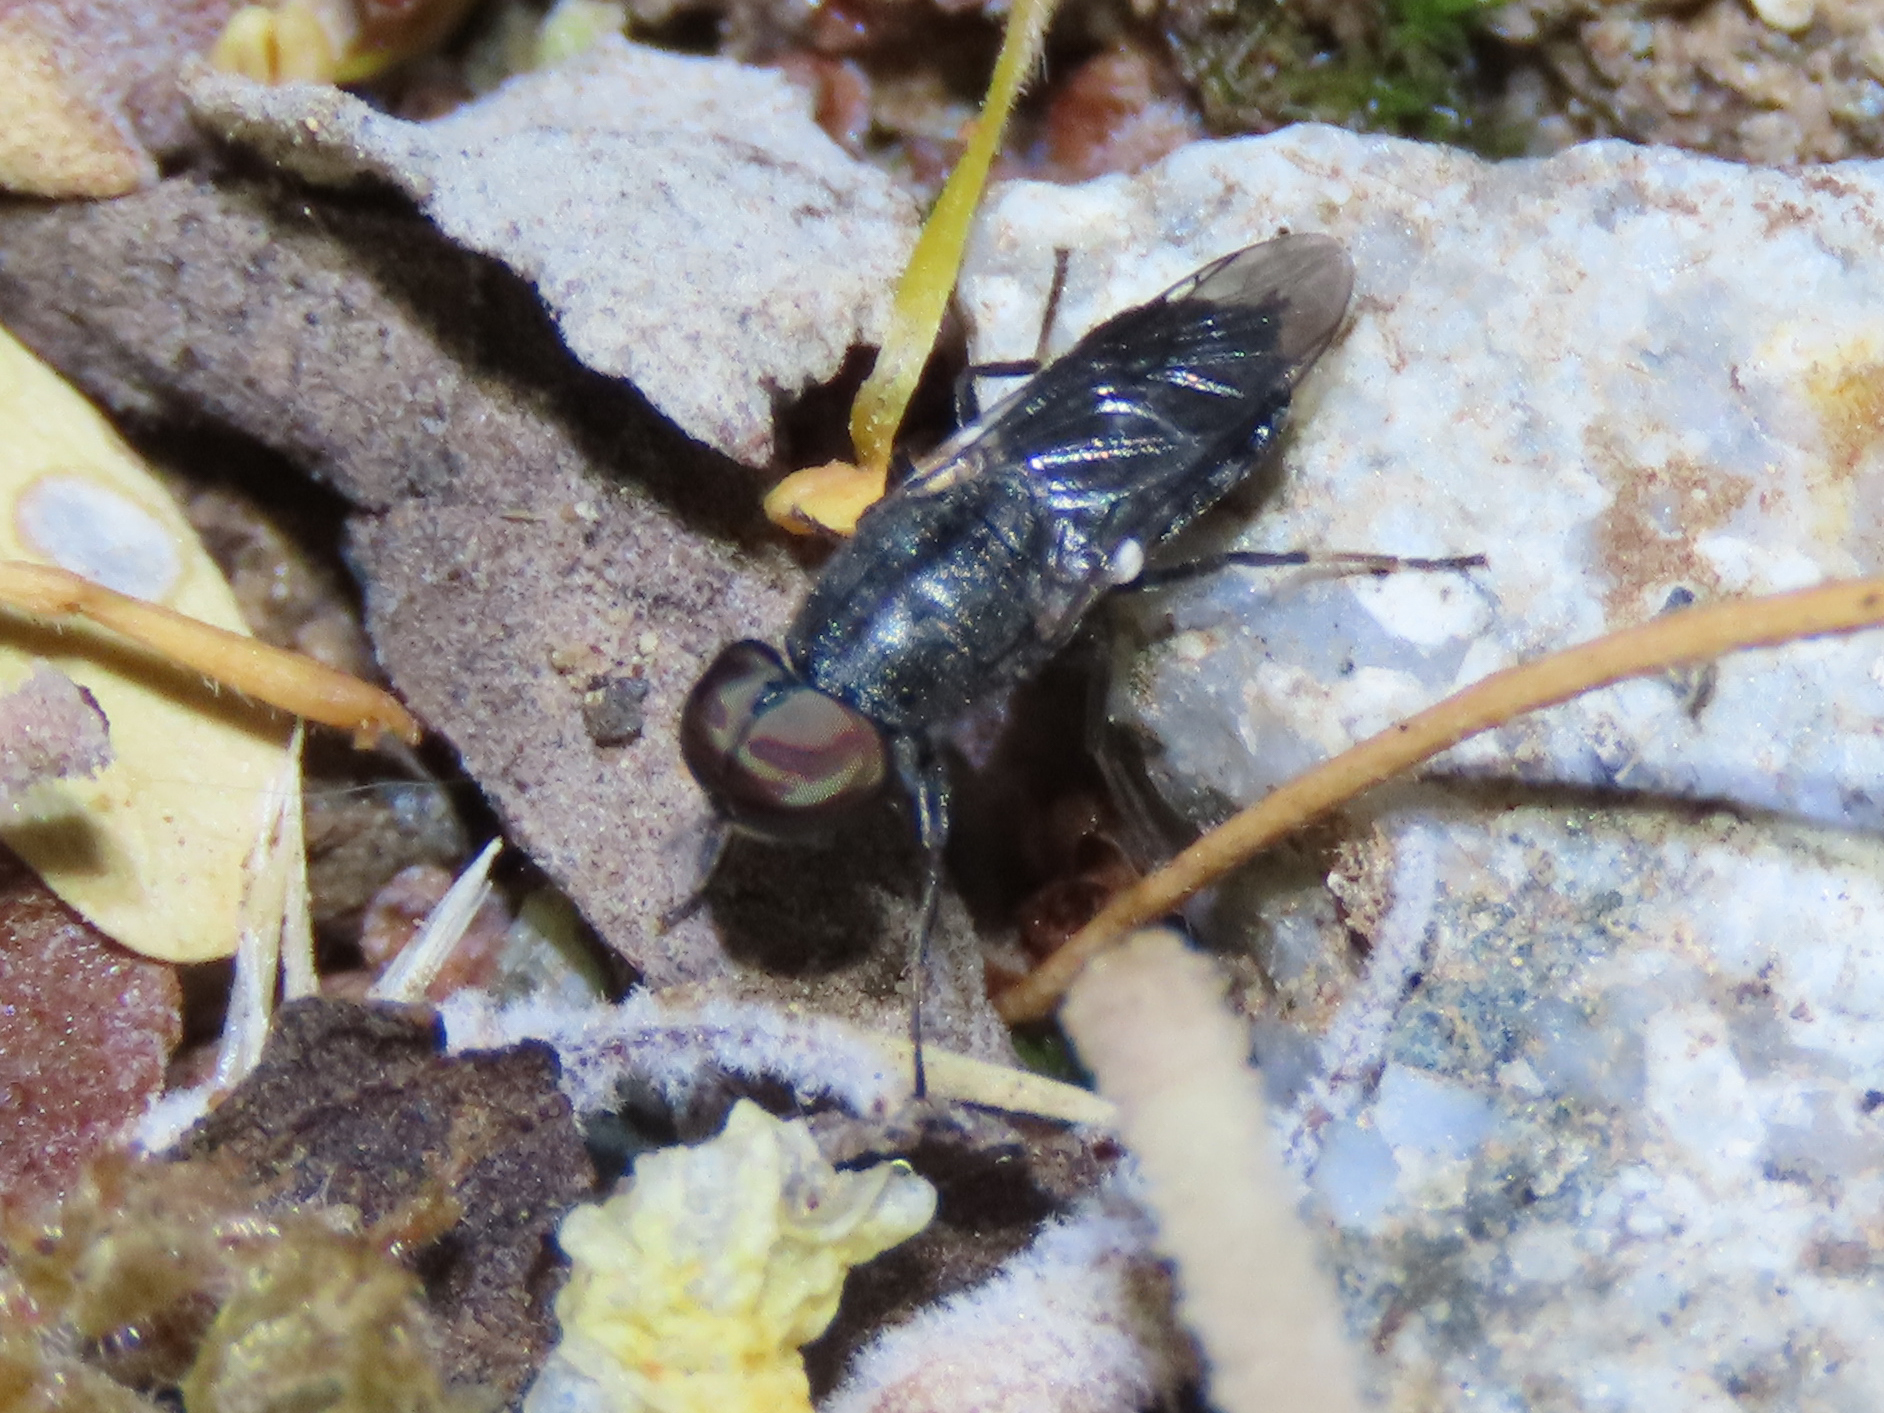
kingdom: Animalia
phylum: Arthropoda
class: Insecta
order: Diptera
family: Stratiomyidae
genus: Dieuryneura
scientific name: Dieuryneura stigma
